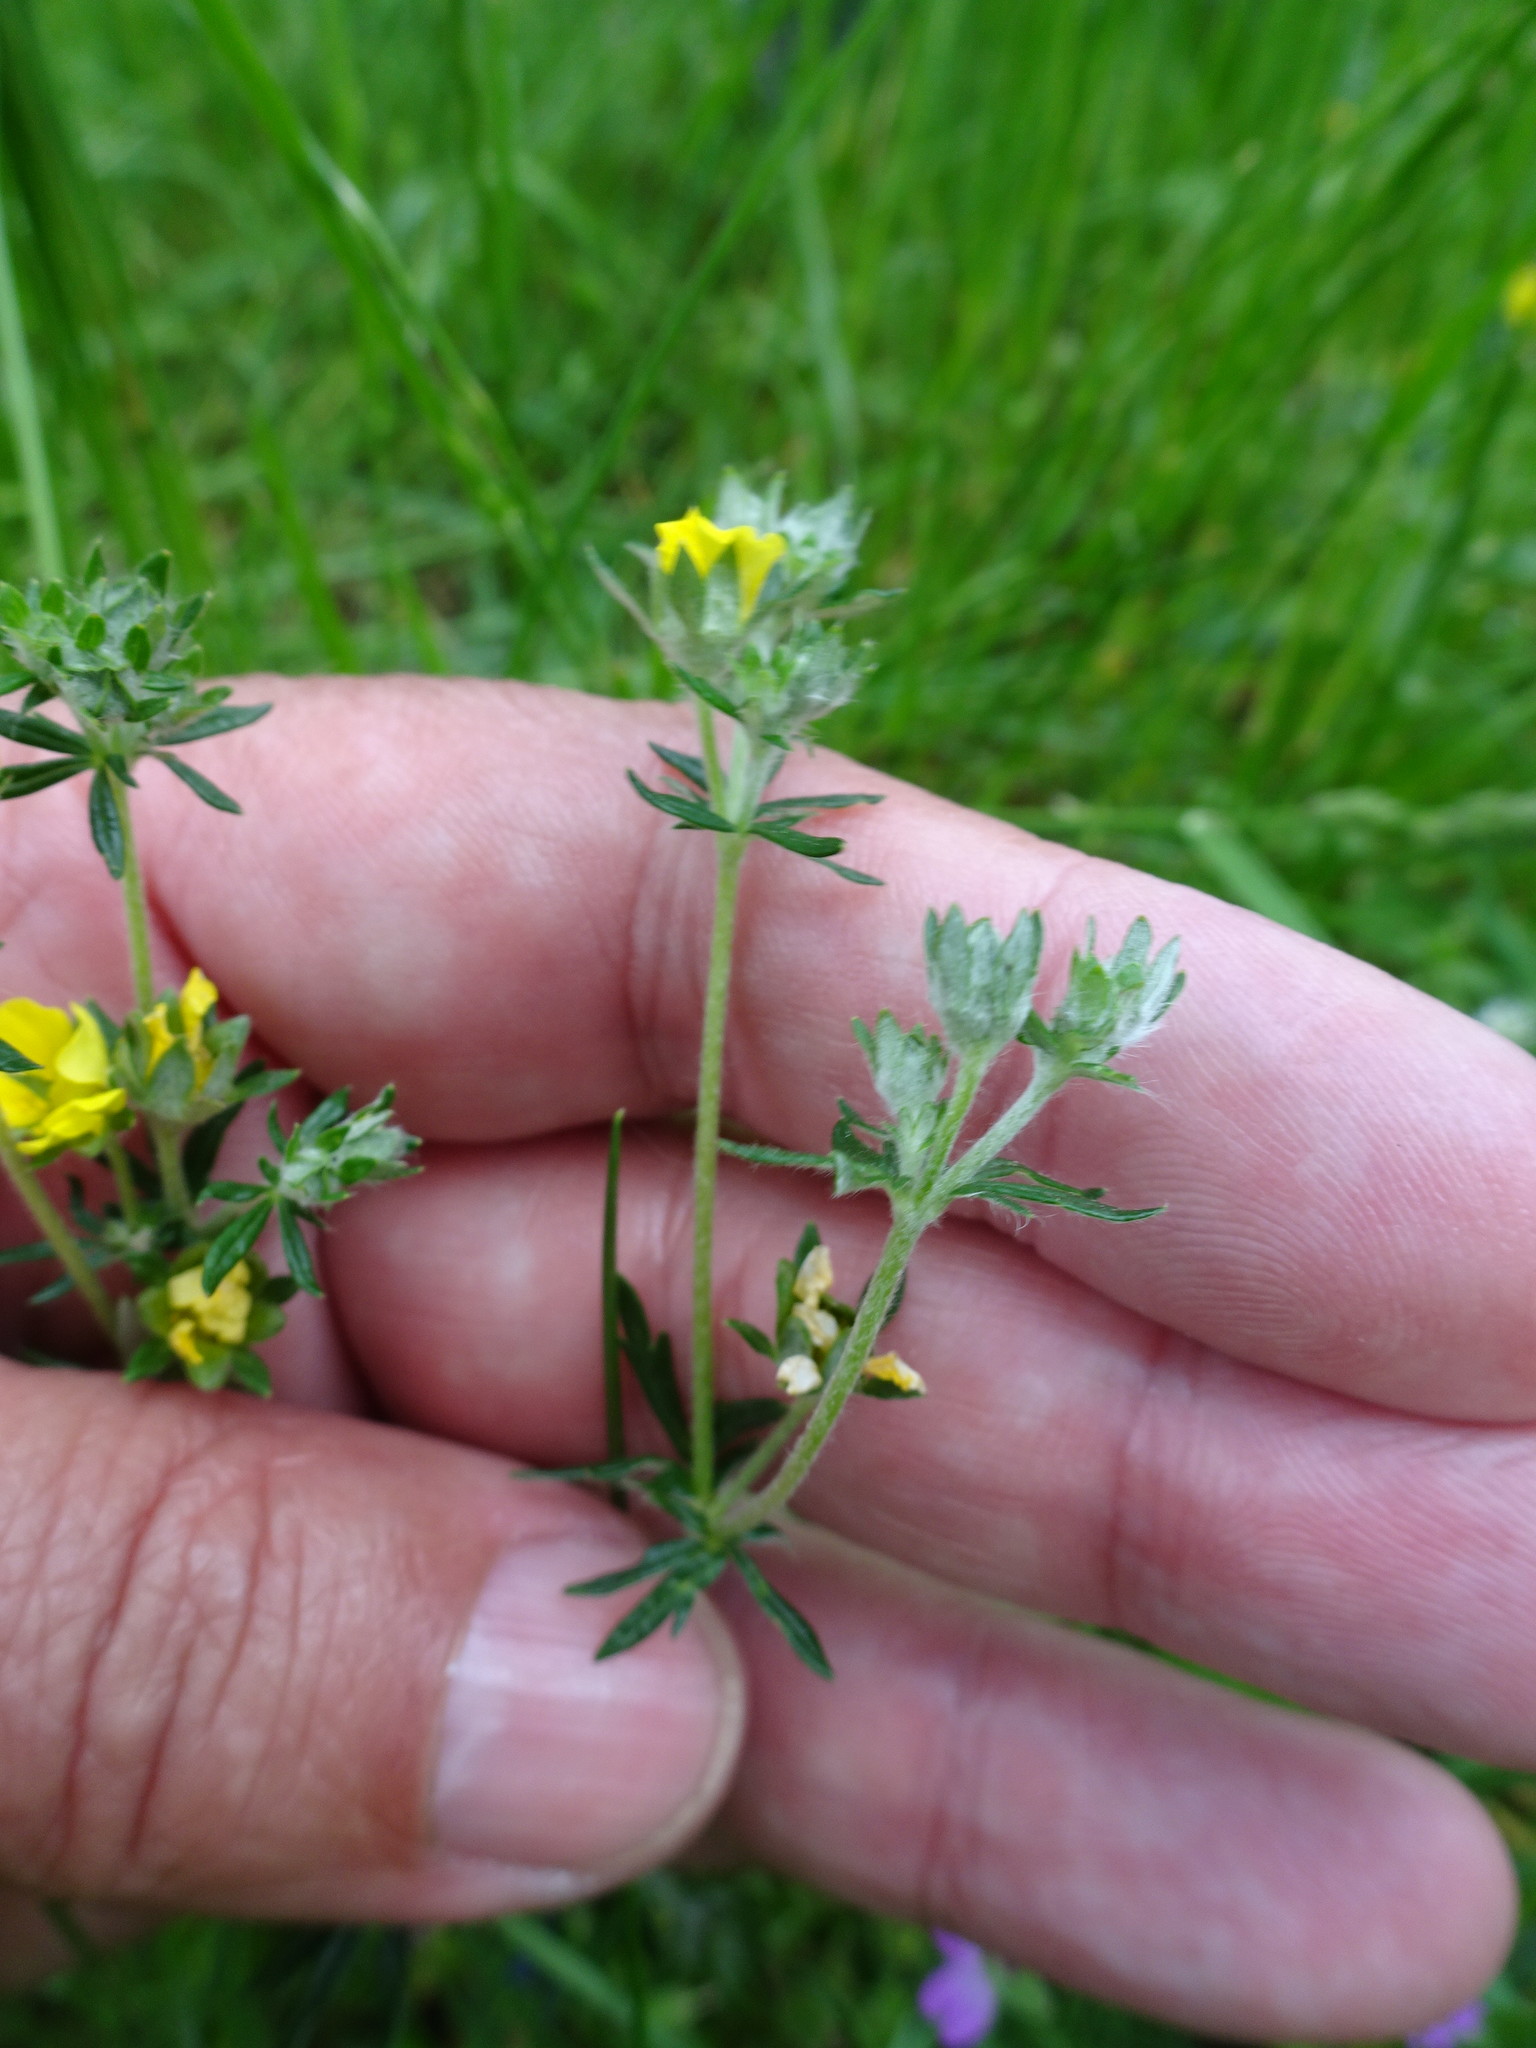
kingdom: Plantae
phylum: Tracheophyta
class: Magnoliopsida
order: Rosales
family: Rosaceae
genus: Potentilla
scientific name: Potentilla argentea
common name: Hoary cinquefoil
